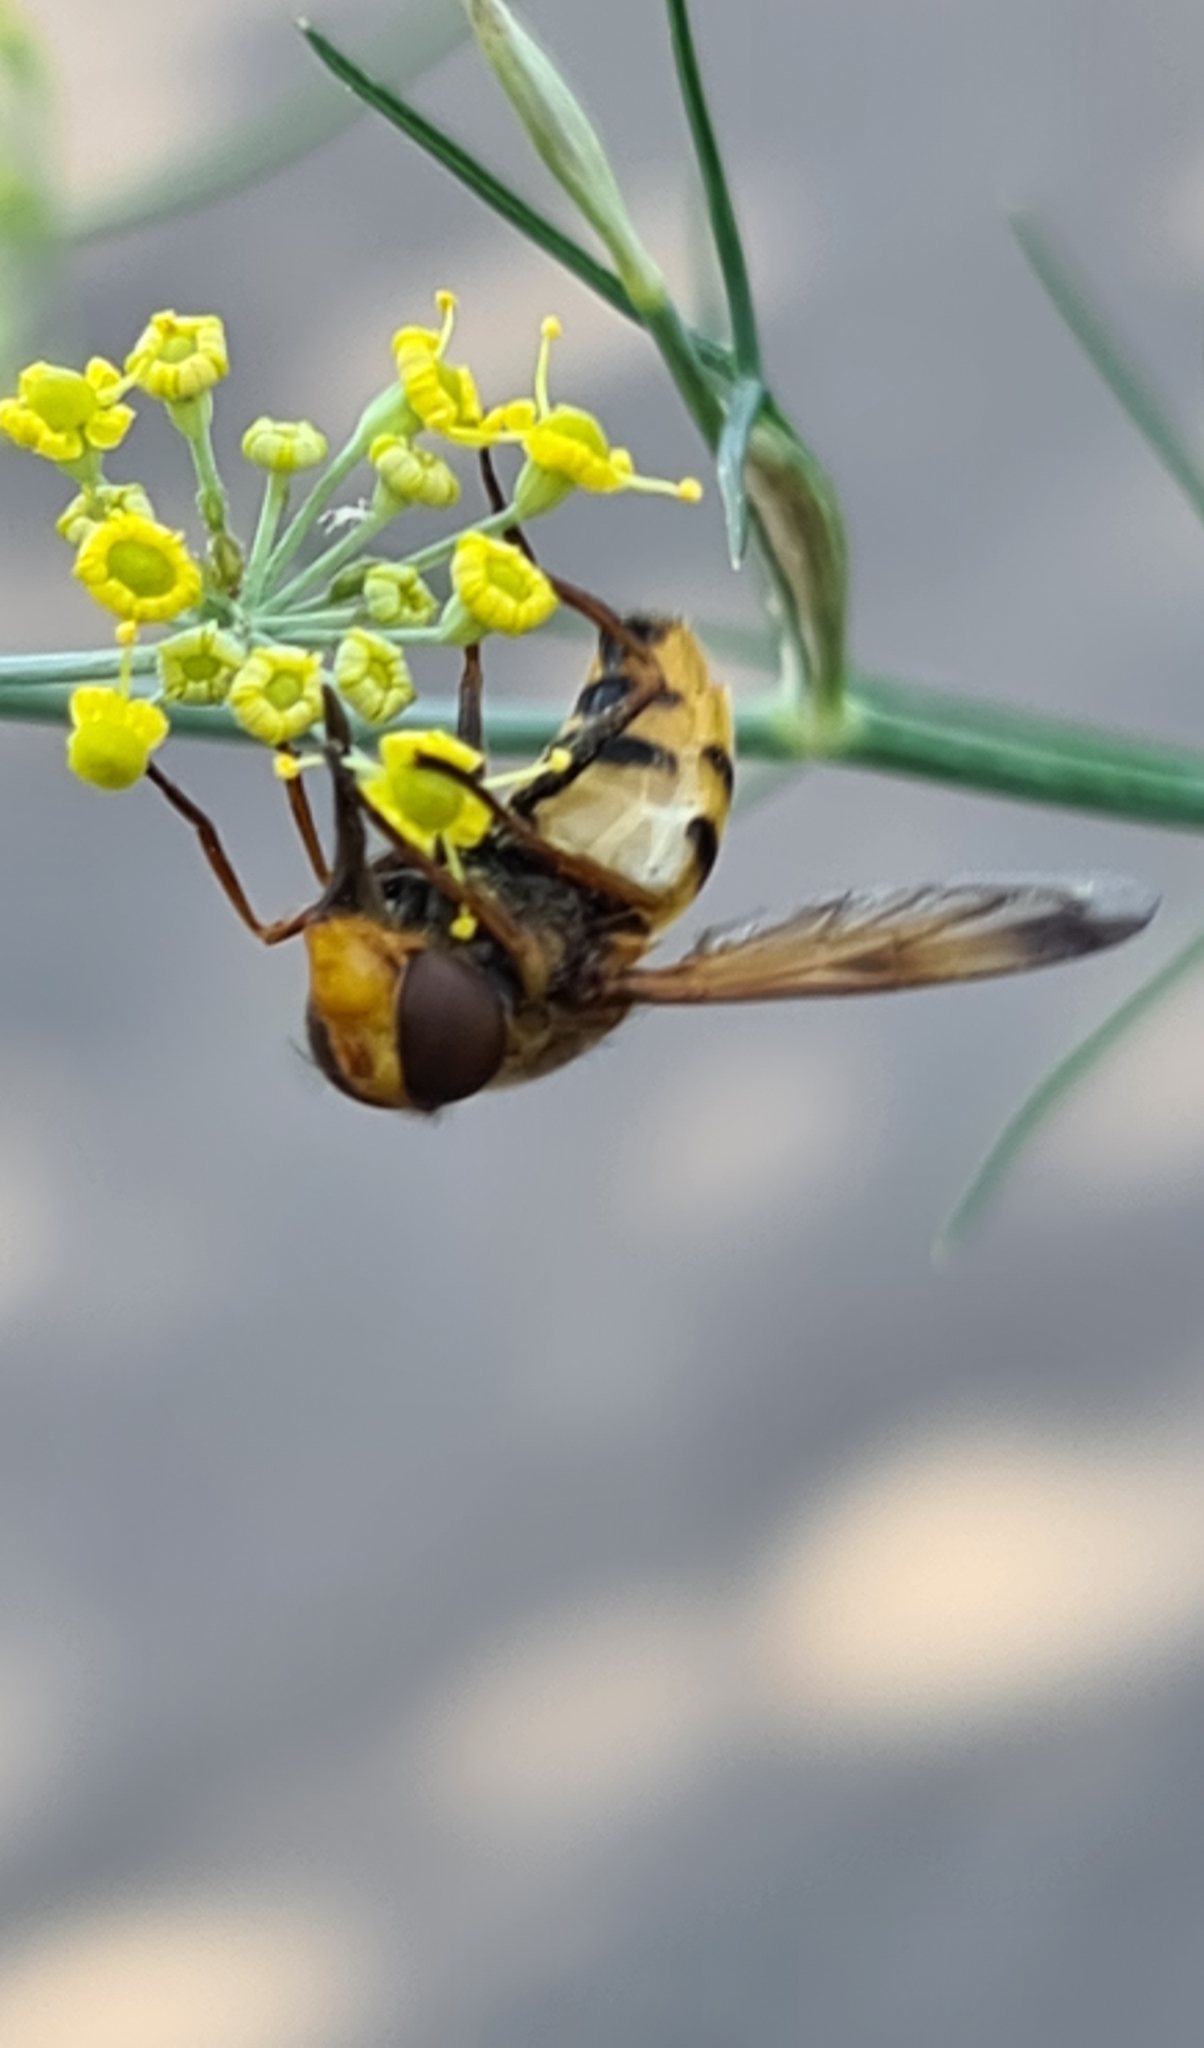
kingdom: Animalia
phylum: Arthropoda
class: Insecta
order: Diptera
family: Syrphidae
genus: Volucella
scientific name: Volucella inanis
